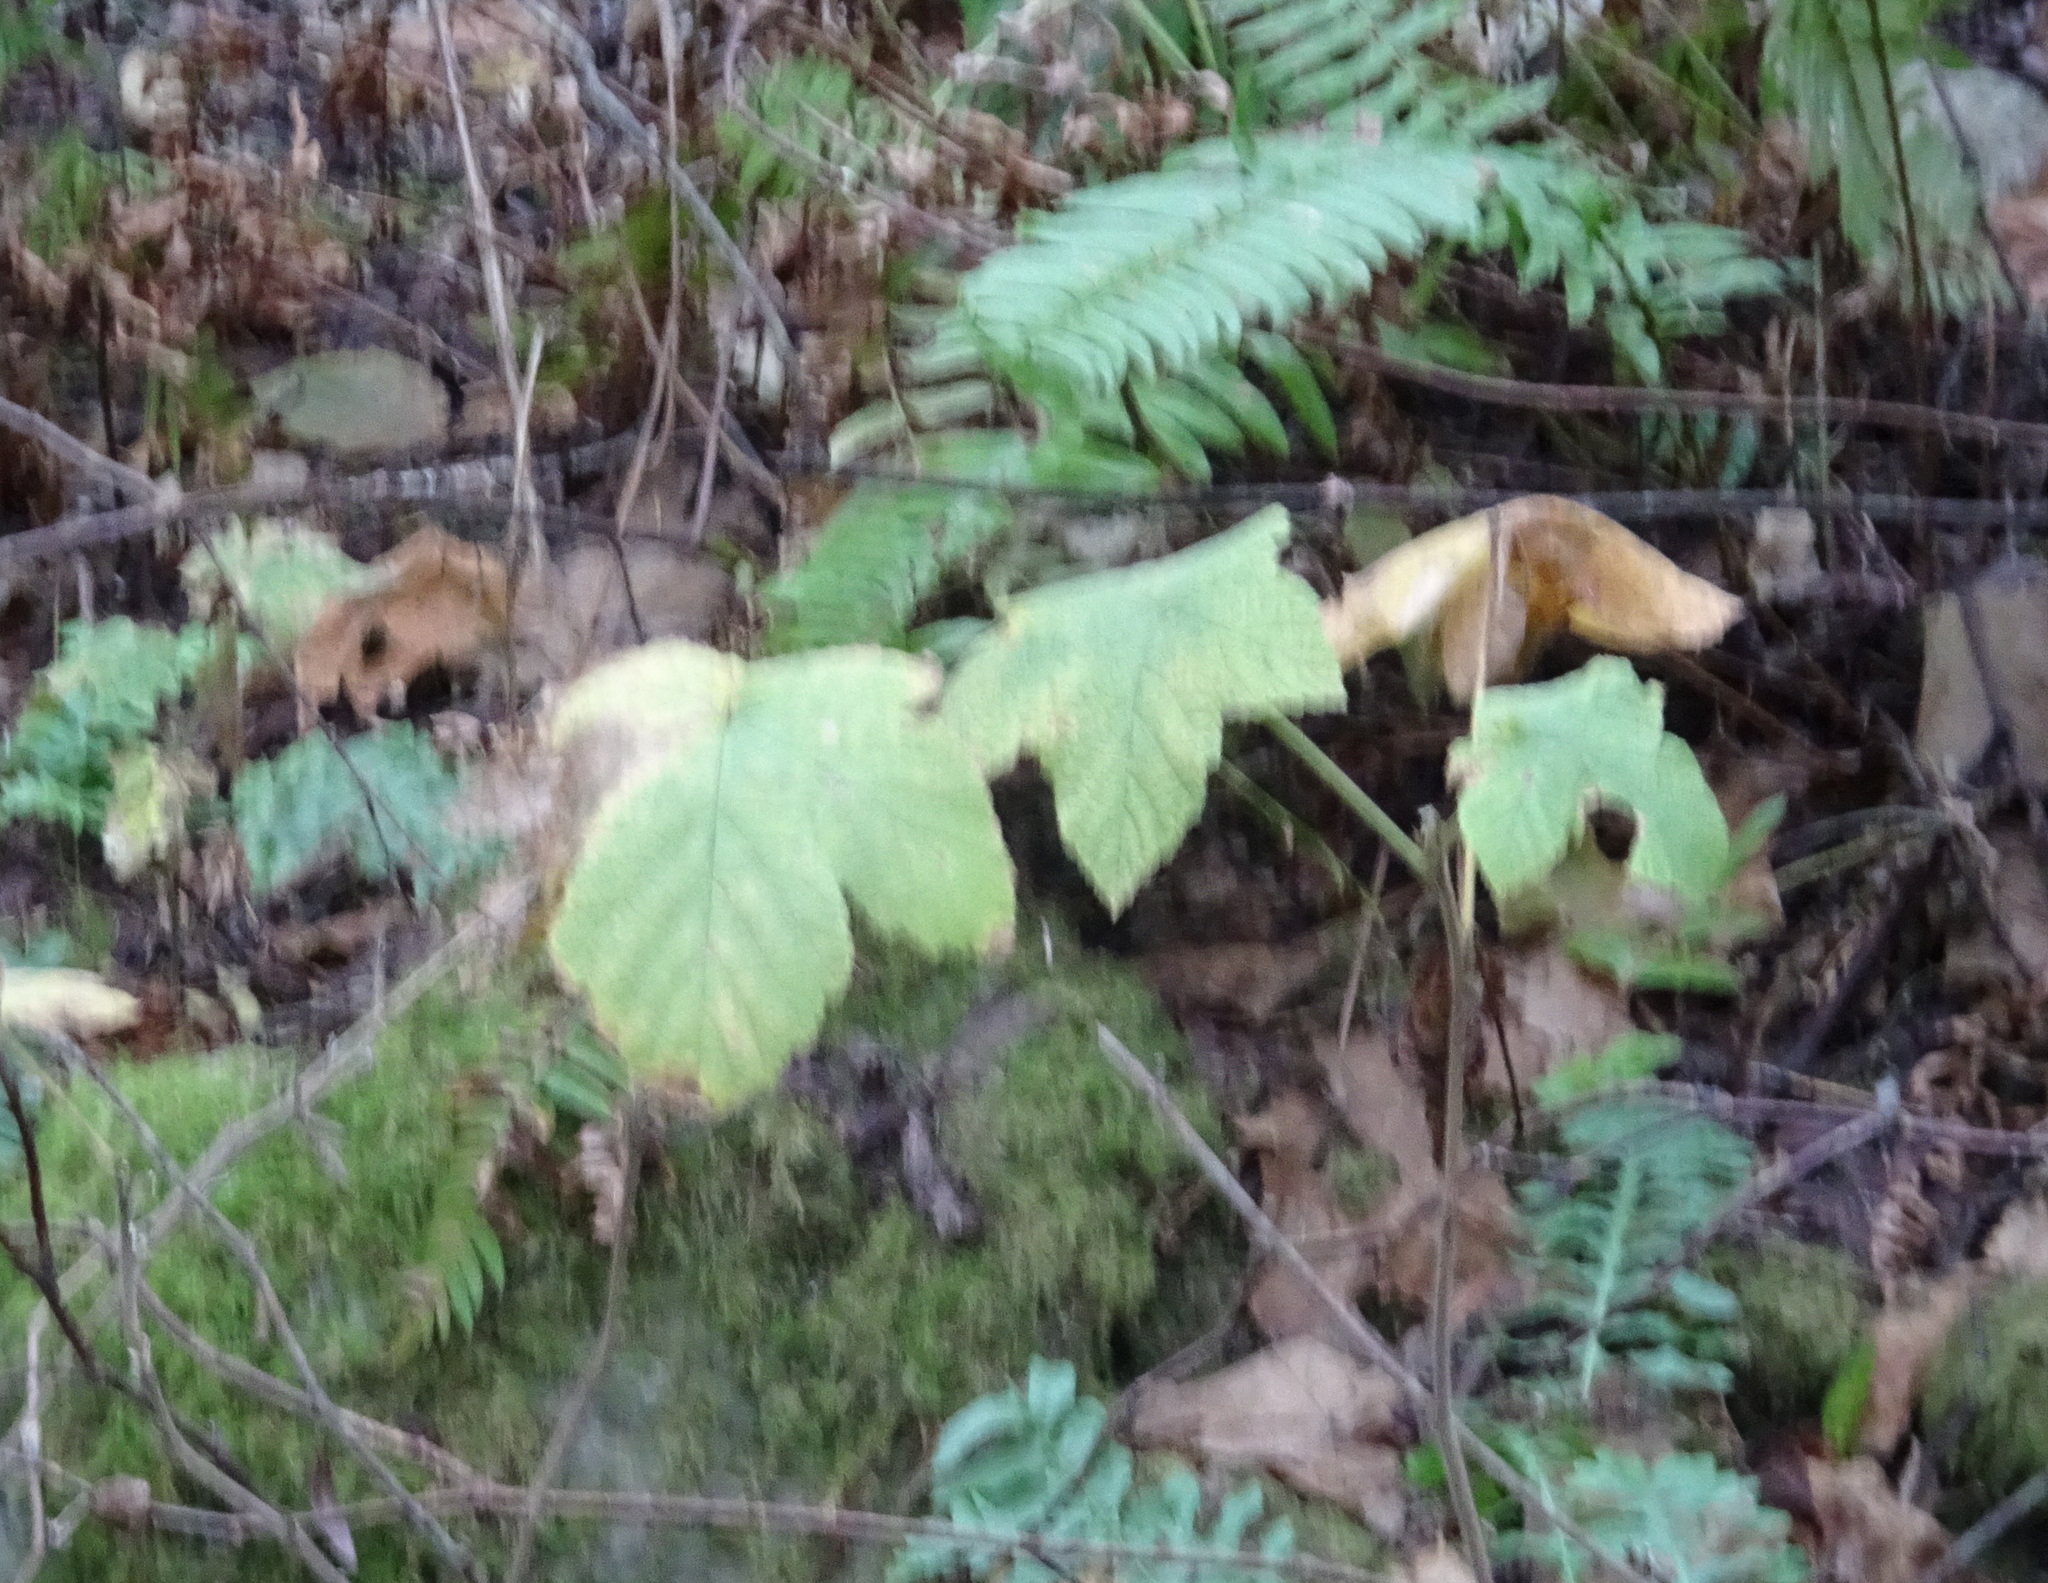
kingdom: Plantae
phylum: Tracheophyta
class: Magnoliopsida
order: Rosales
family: Rosaceae
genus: Rubus
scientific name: Rubus parviflorus
